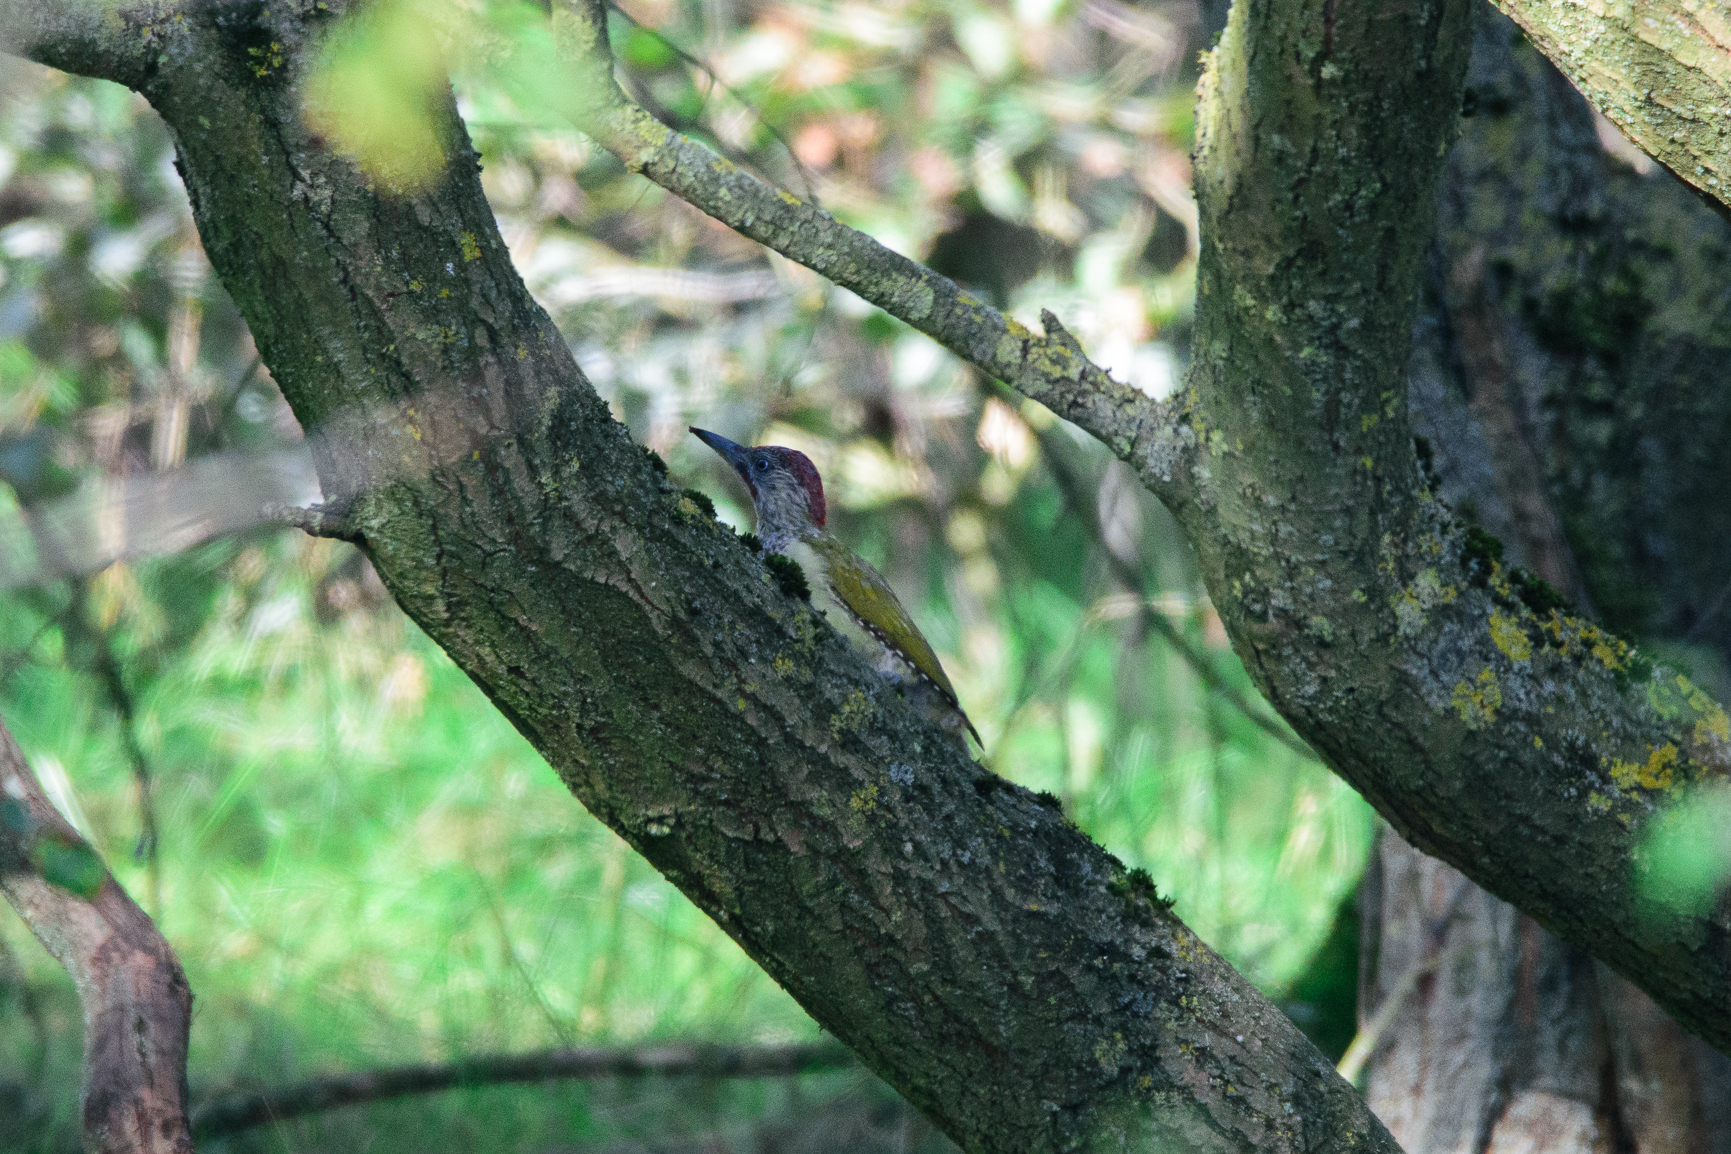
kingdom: Animalia
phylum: Chordata
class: Aves
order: Piciformes
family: Picidae
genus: Picus
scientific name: Picus viridis
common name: European green woodpecker
